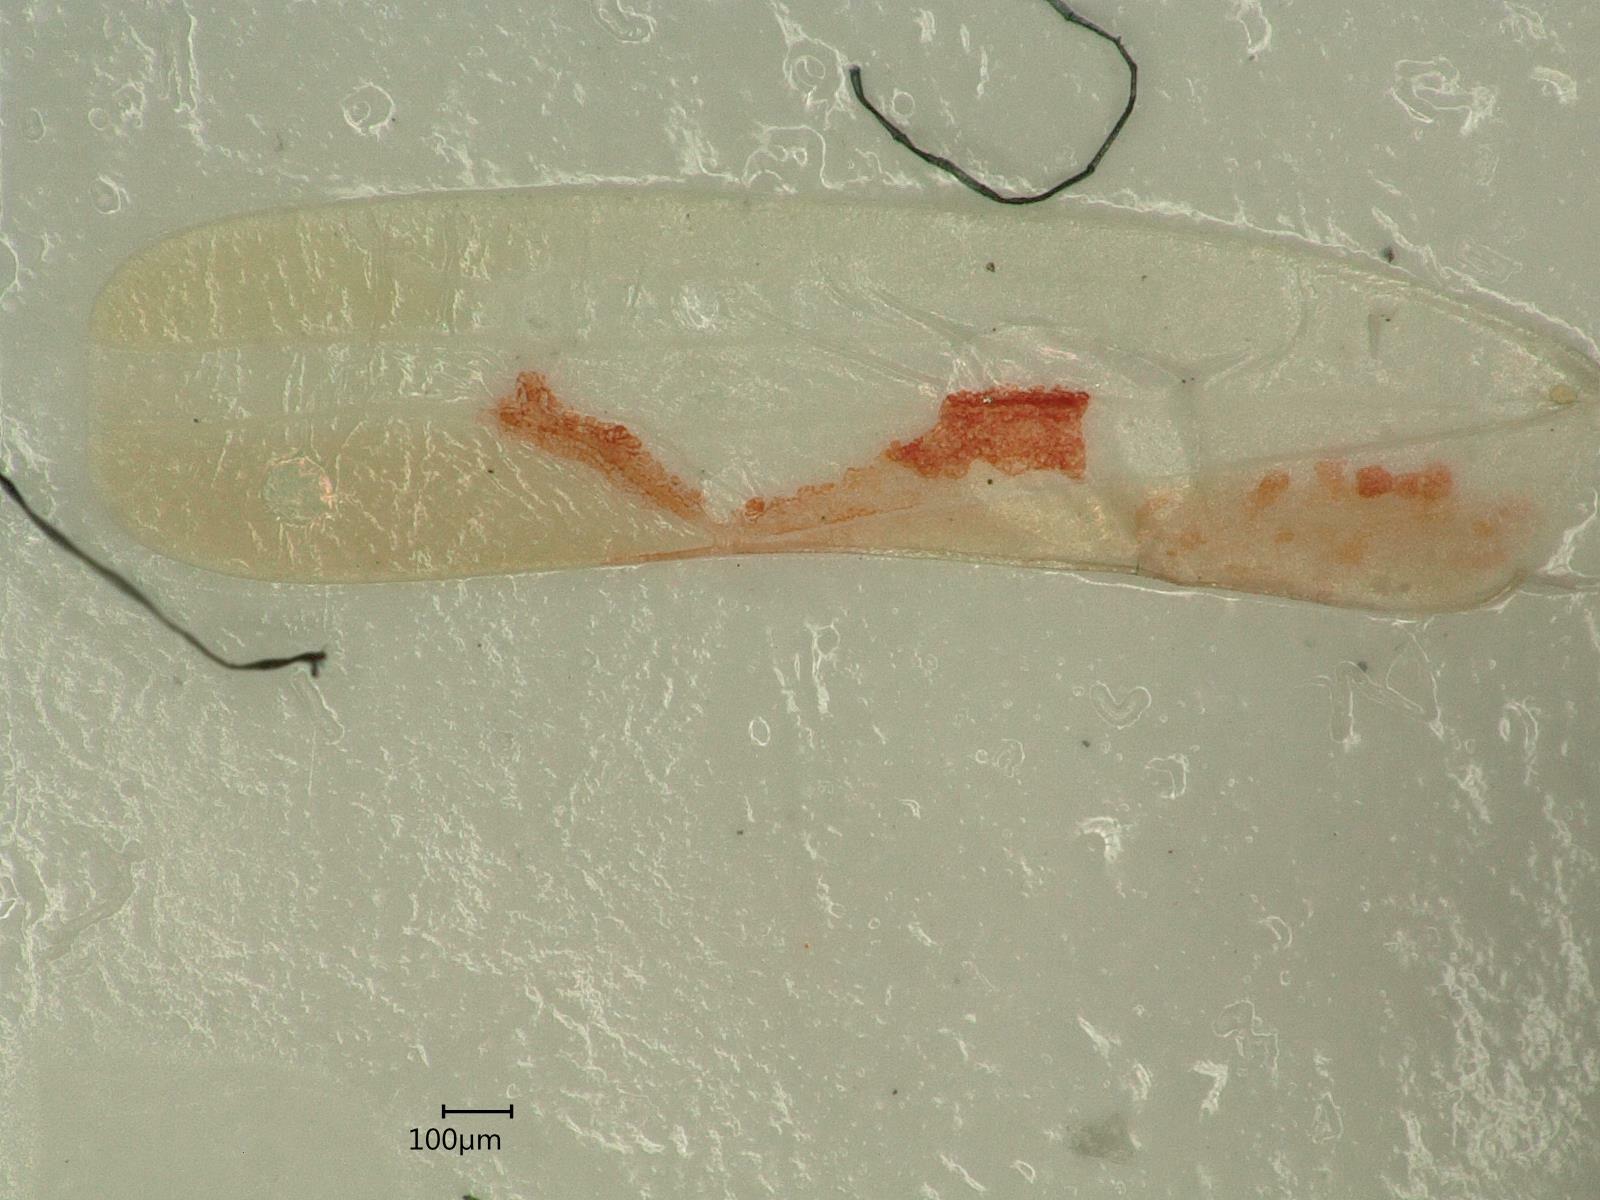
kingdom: Animalia
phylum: Arthropoda
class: Insecta
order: Hemiptera
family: Cicadellidae
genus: Zygina
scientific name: Zygina angusta
